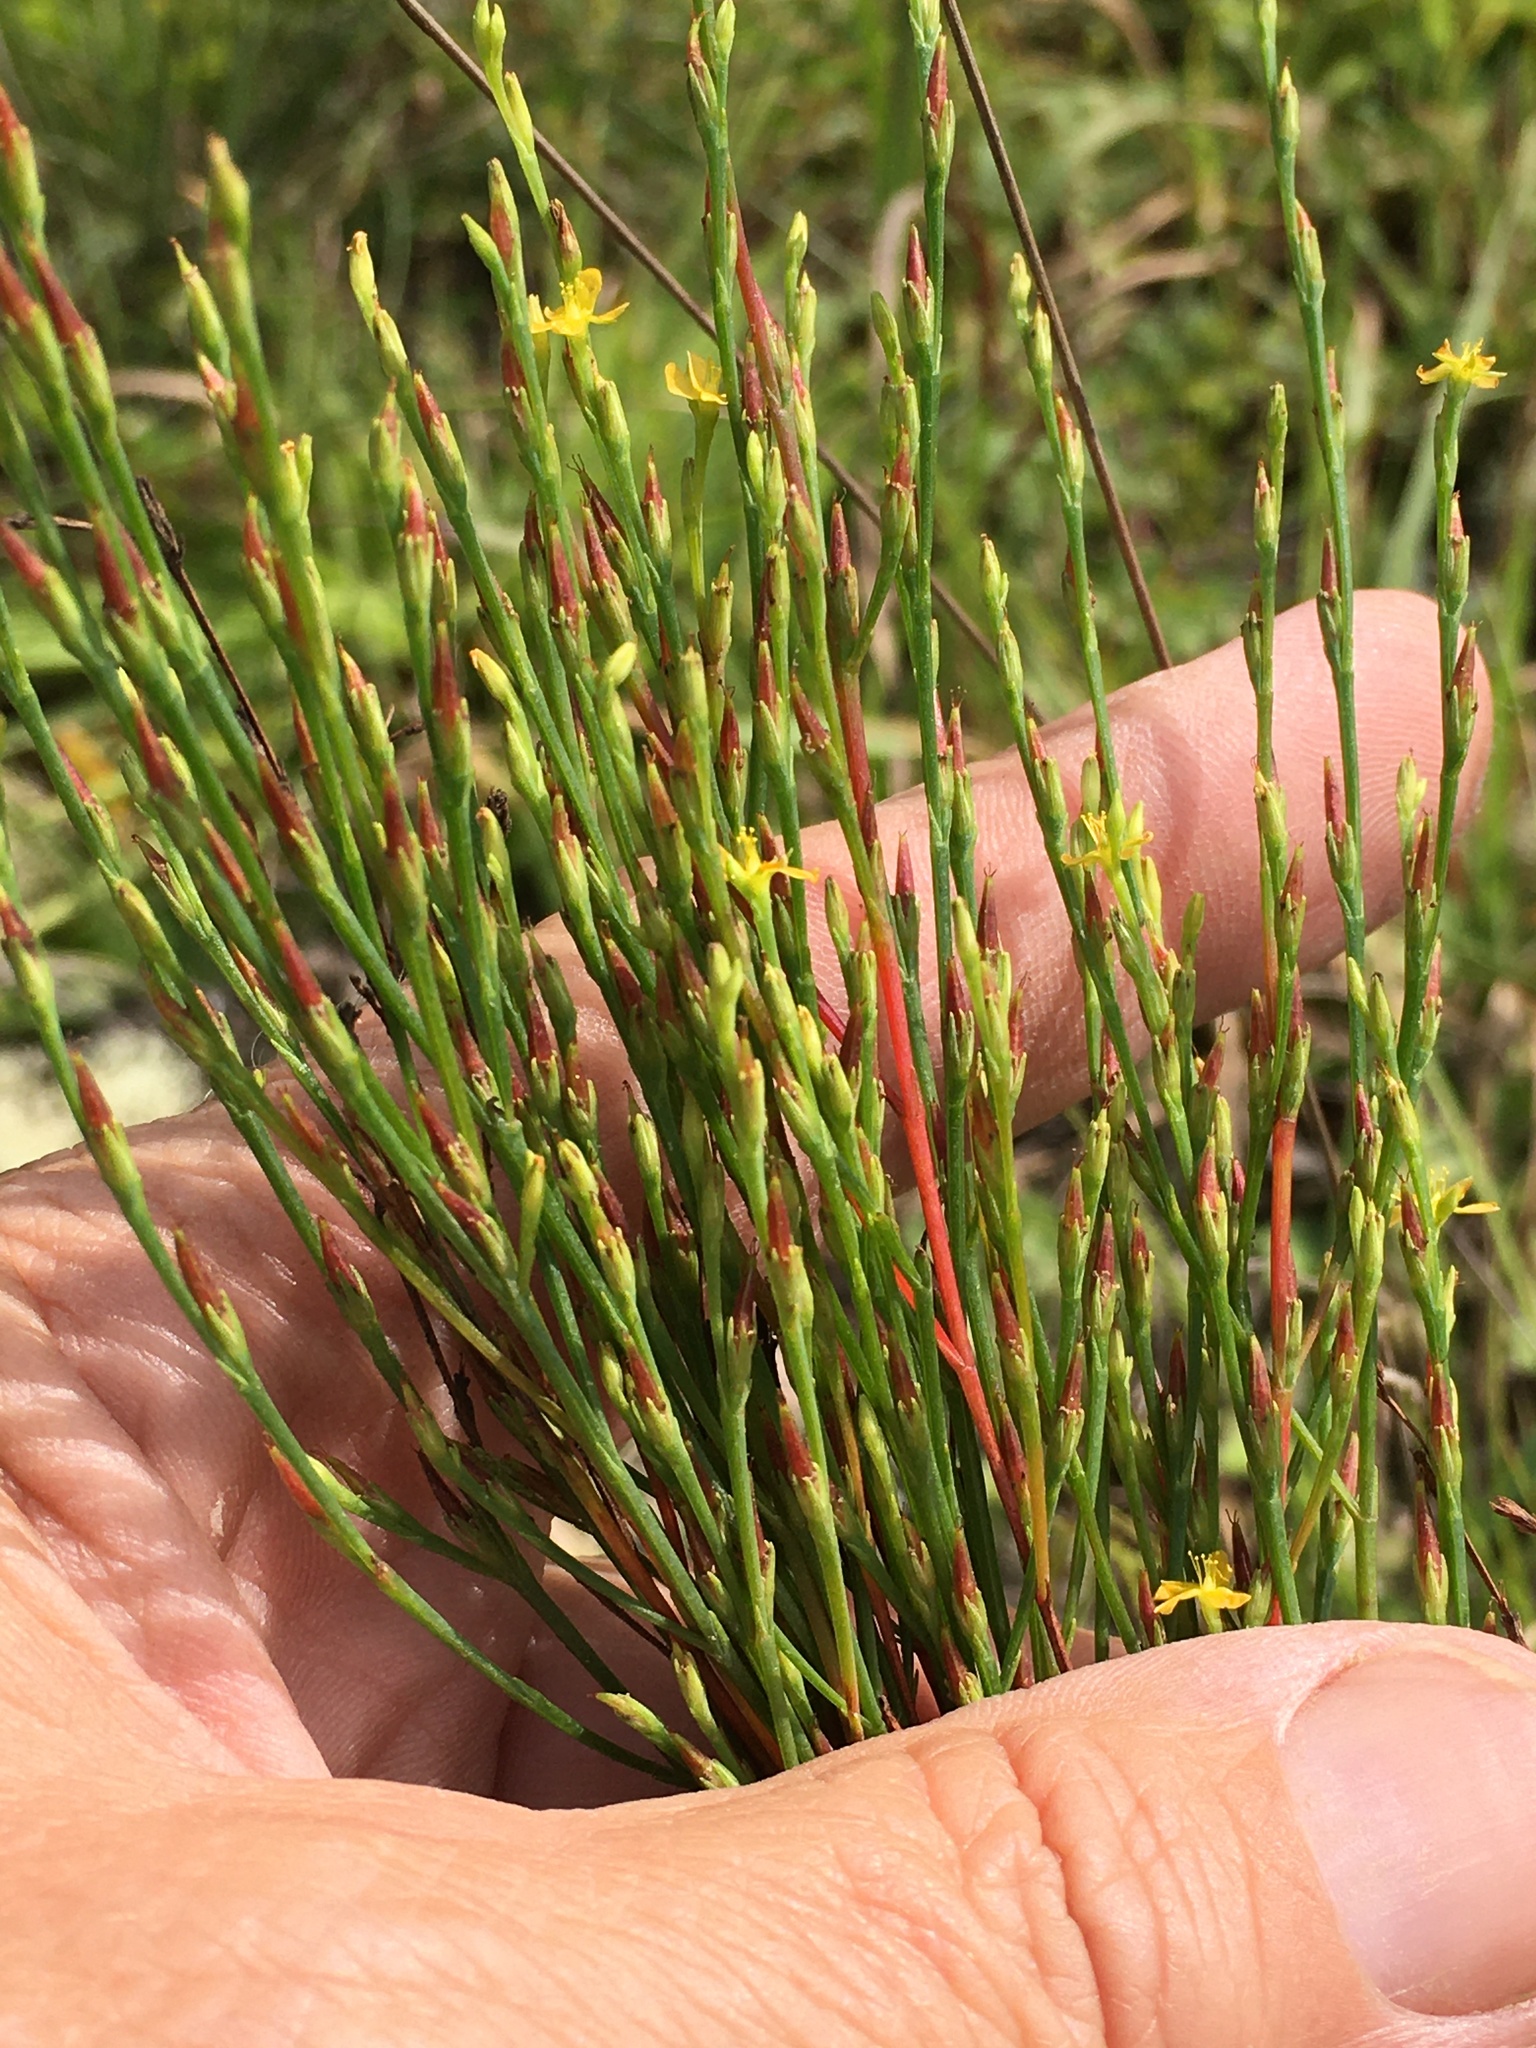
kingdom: Plantae
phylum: Tracheophyta
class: Magnoliopsida
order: Malpighiales
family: Hypericaceae
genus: Hypericum
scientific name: Hypericum gentianoides
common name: Gentian-leaved st. john's-wort
